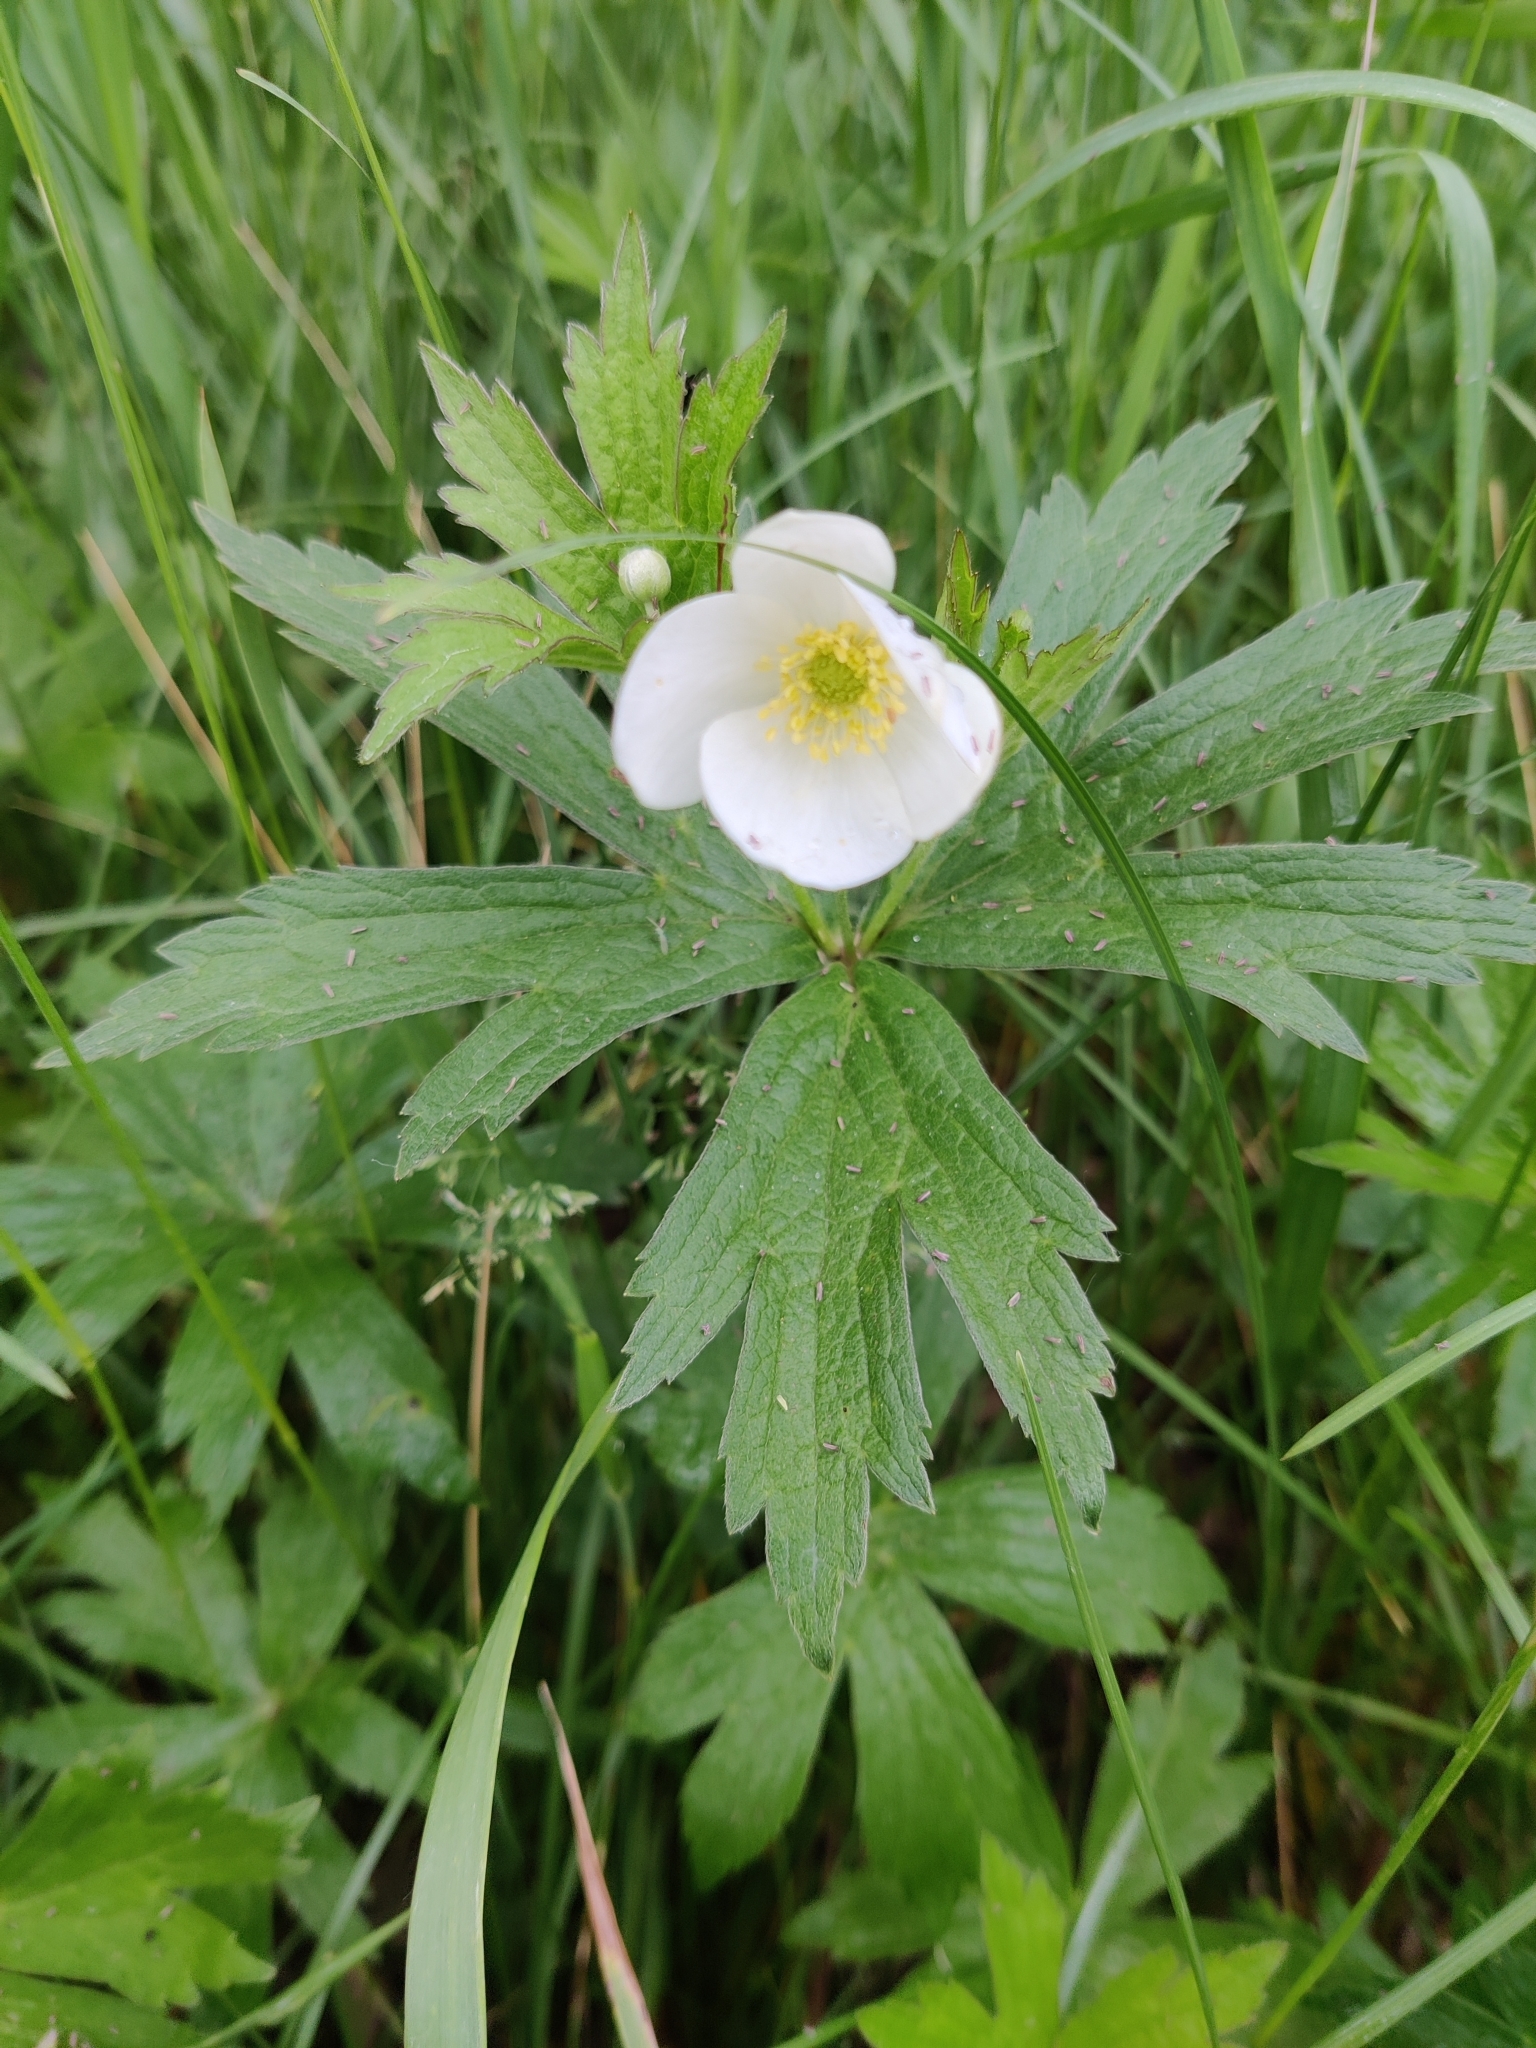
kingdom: Plantae
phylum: Tracheophyta
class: Magnoliopsida
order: Ranunculales
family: Ranunculaceae
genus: Anemonastrum
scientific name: Anemonastrum canadense
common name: Canada anemone
